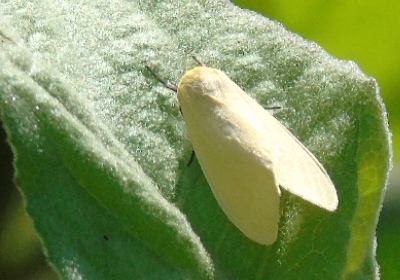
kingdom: Animalia
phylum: Arthropoda
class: Insecta
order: Lepidoptera
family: Erebidae
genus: Arctiinae
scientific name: Arctiinae
